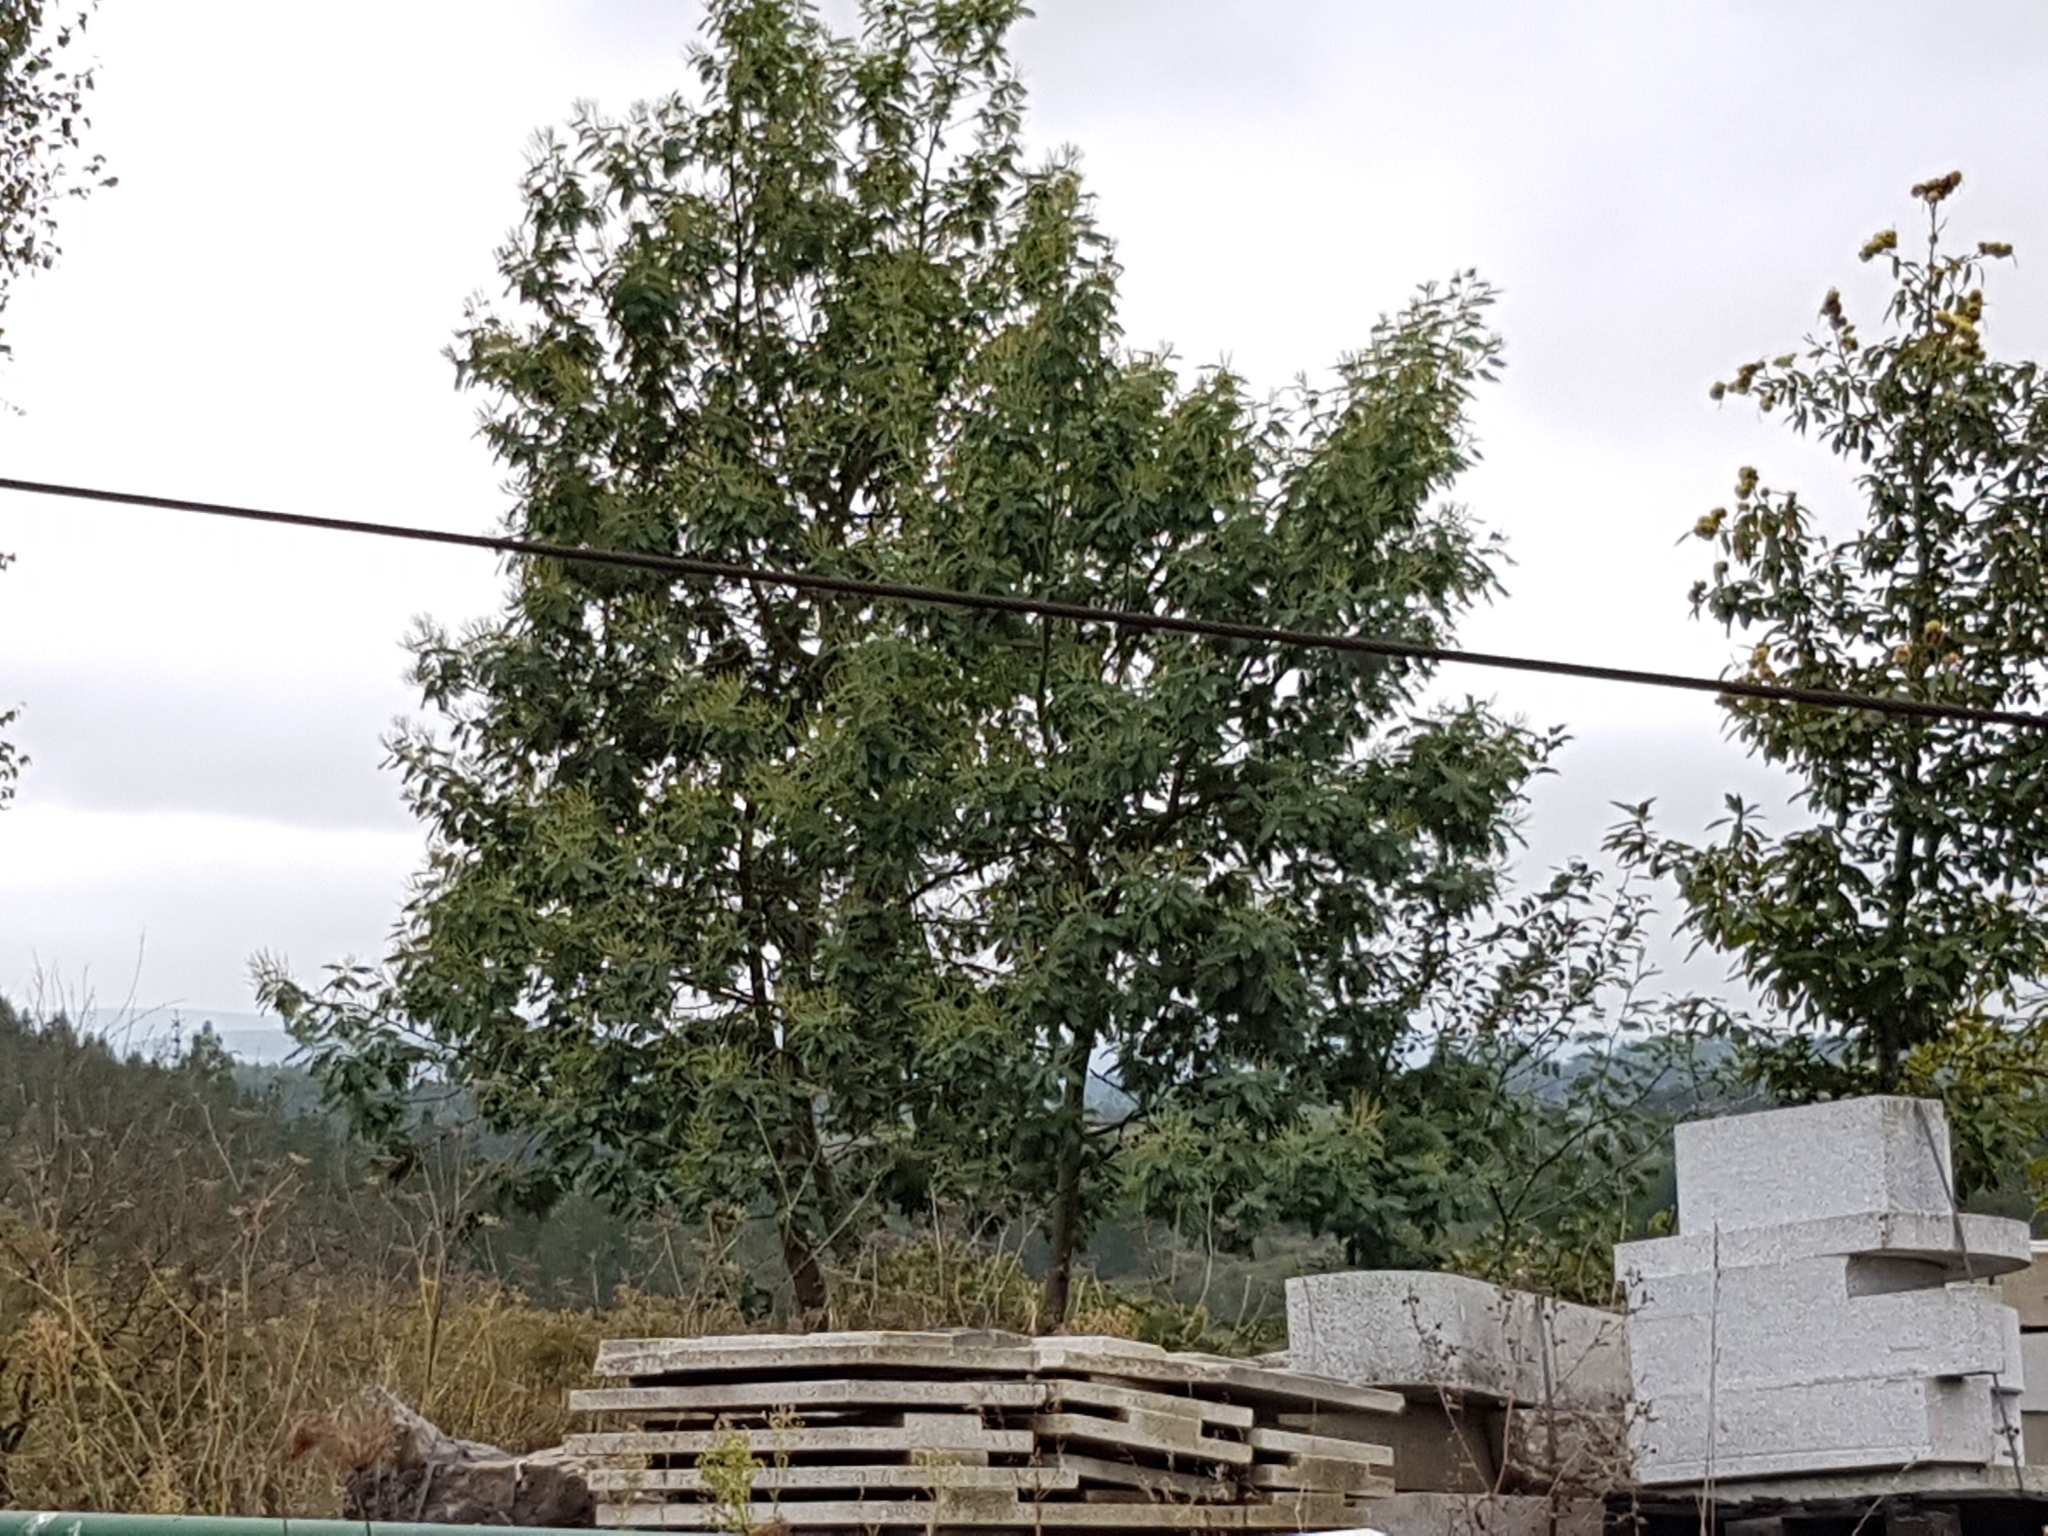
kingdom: Plantae
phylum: Tracheophyta
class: Magnoliopsida
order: Fabales
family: Fabaceae
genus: Acacia
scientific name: Acacia dealbata
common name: Silver wattle
